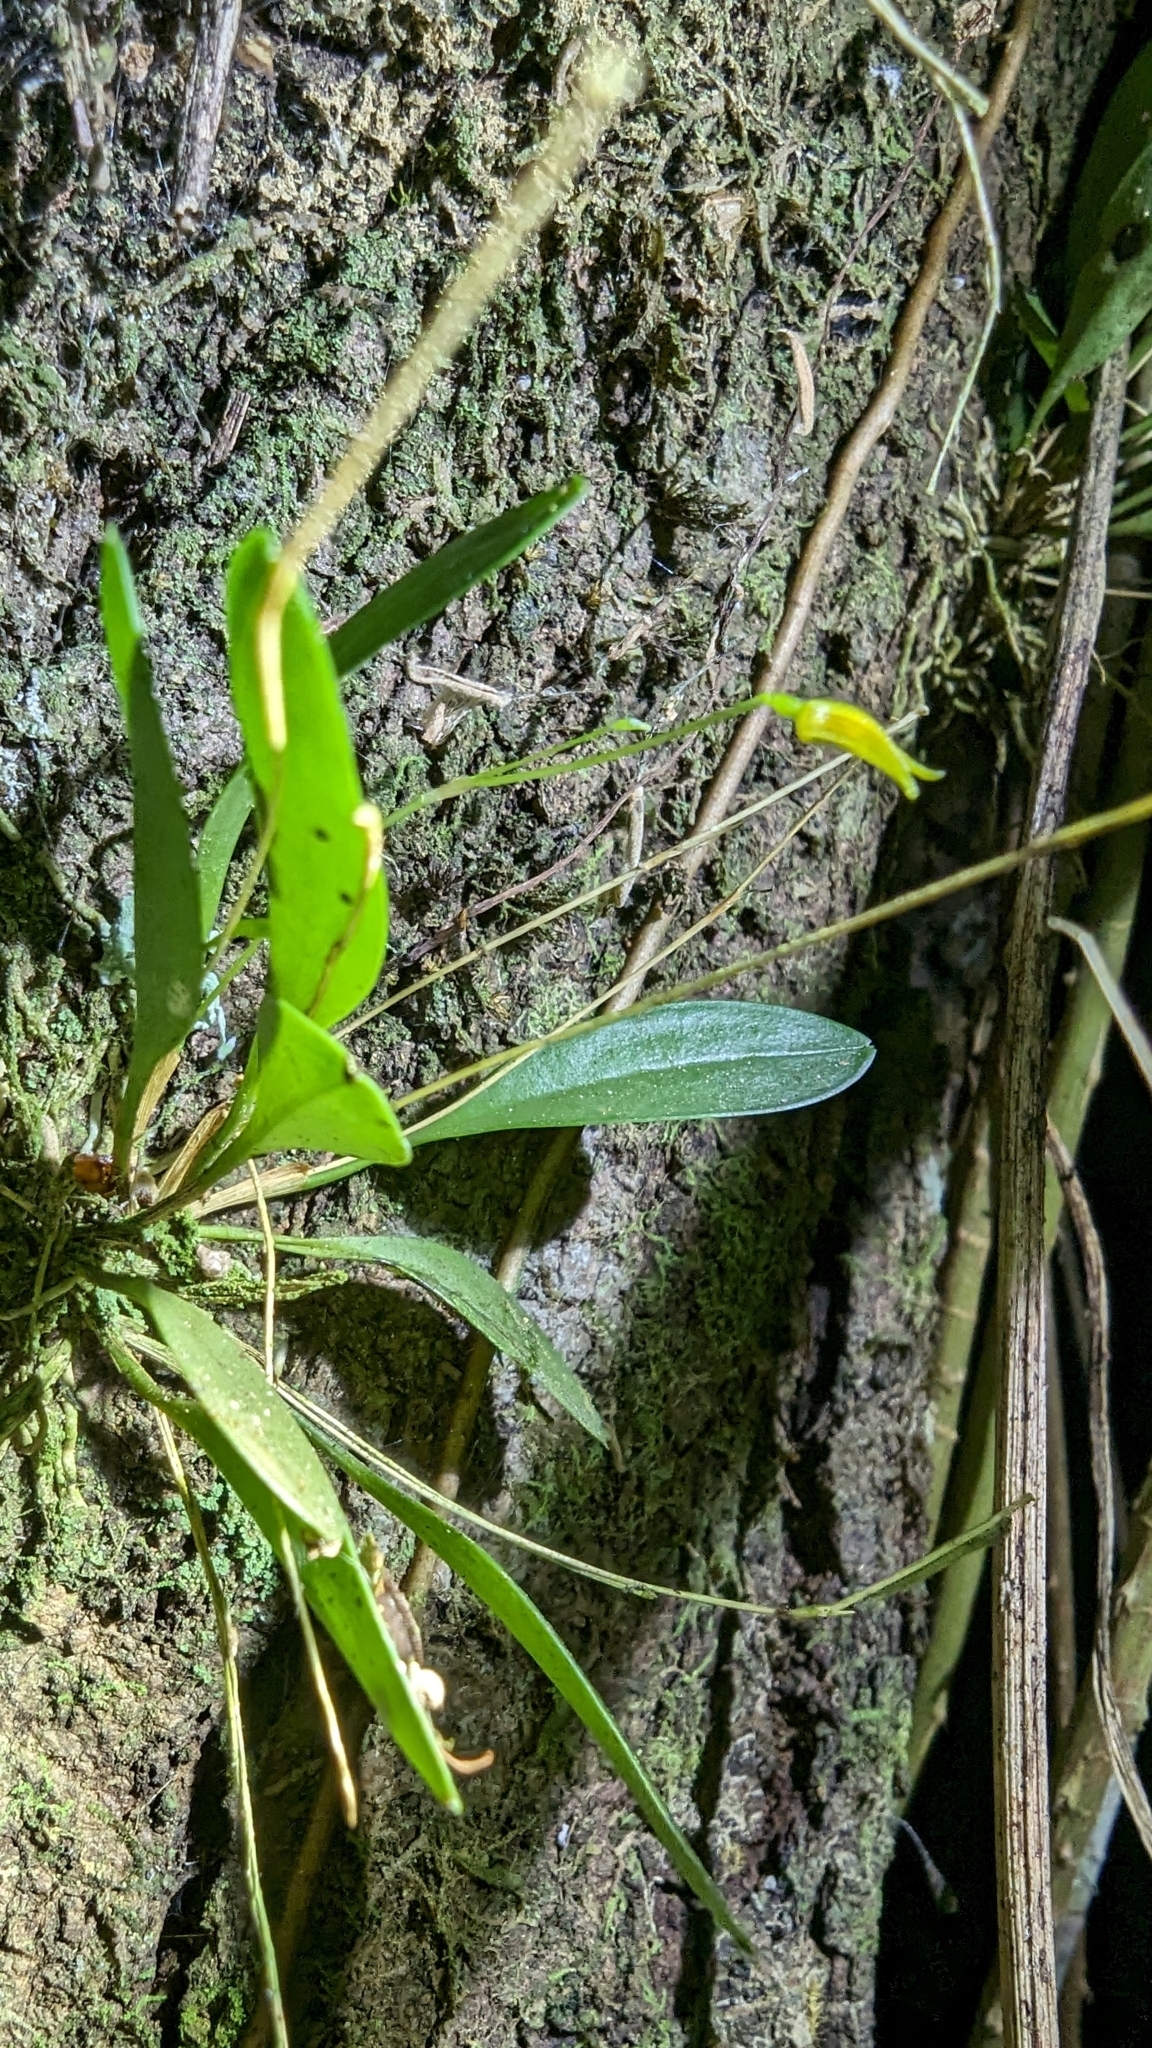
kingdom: Plantae
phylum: Tracheophyta
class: Liliopsida
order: Asparagales
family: Orchidaceae
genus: Specklinia
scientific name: Specklinia corniculata
